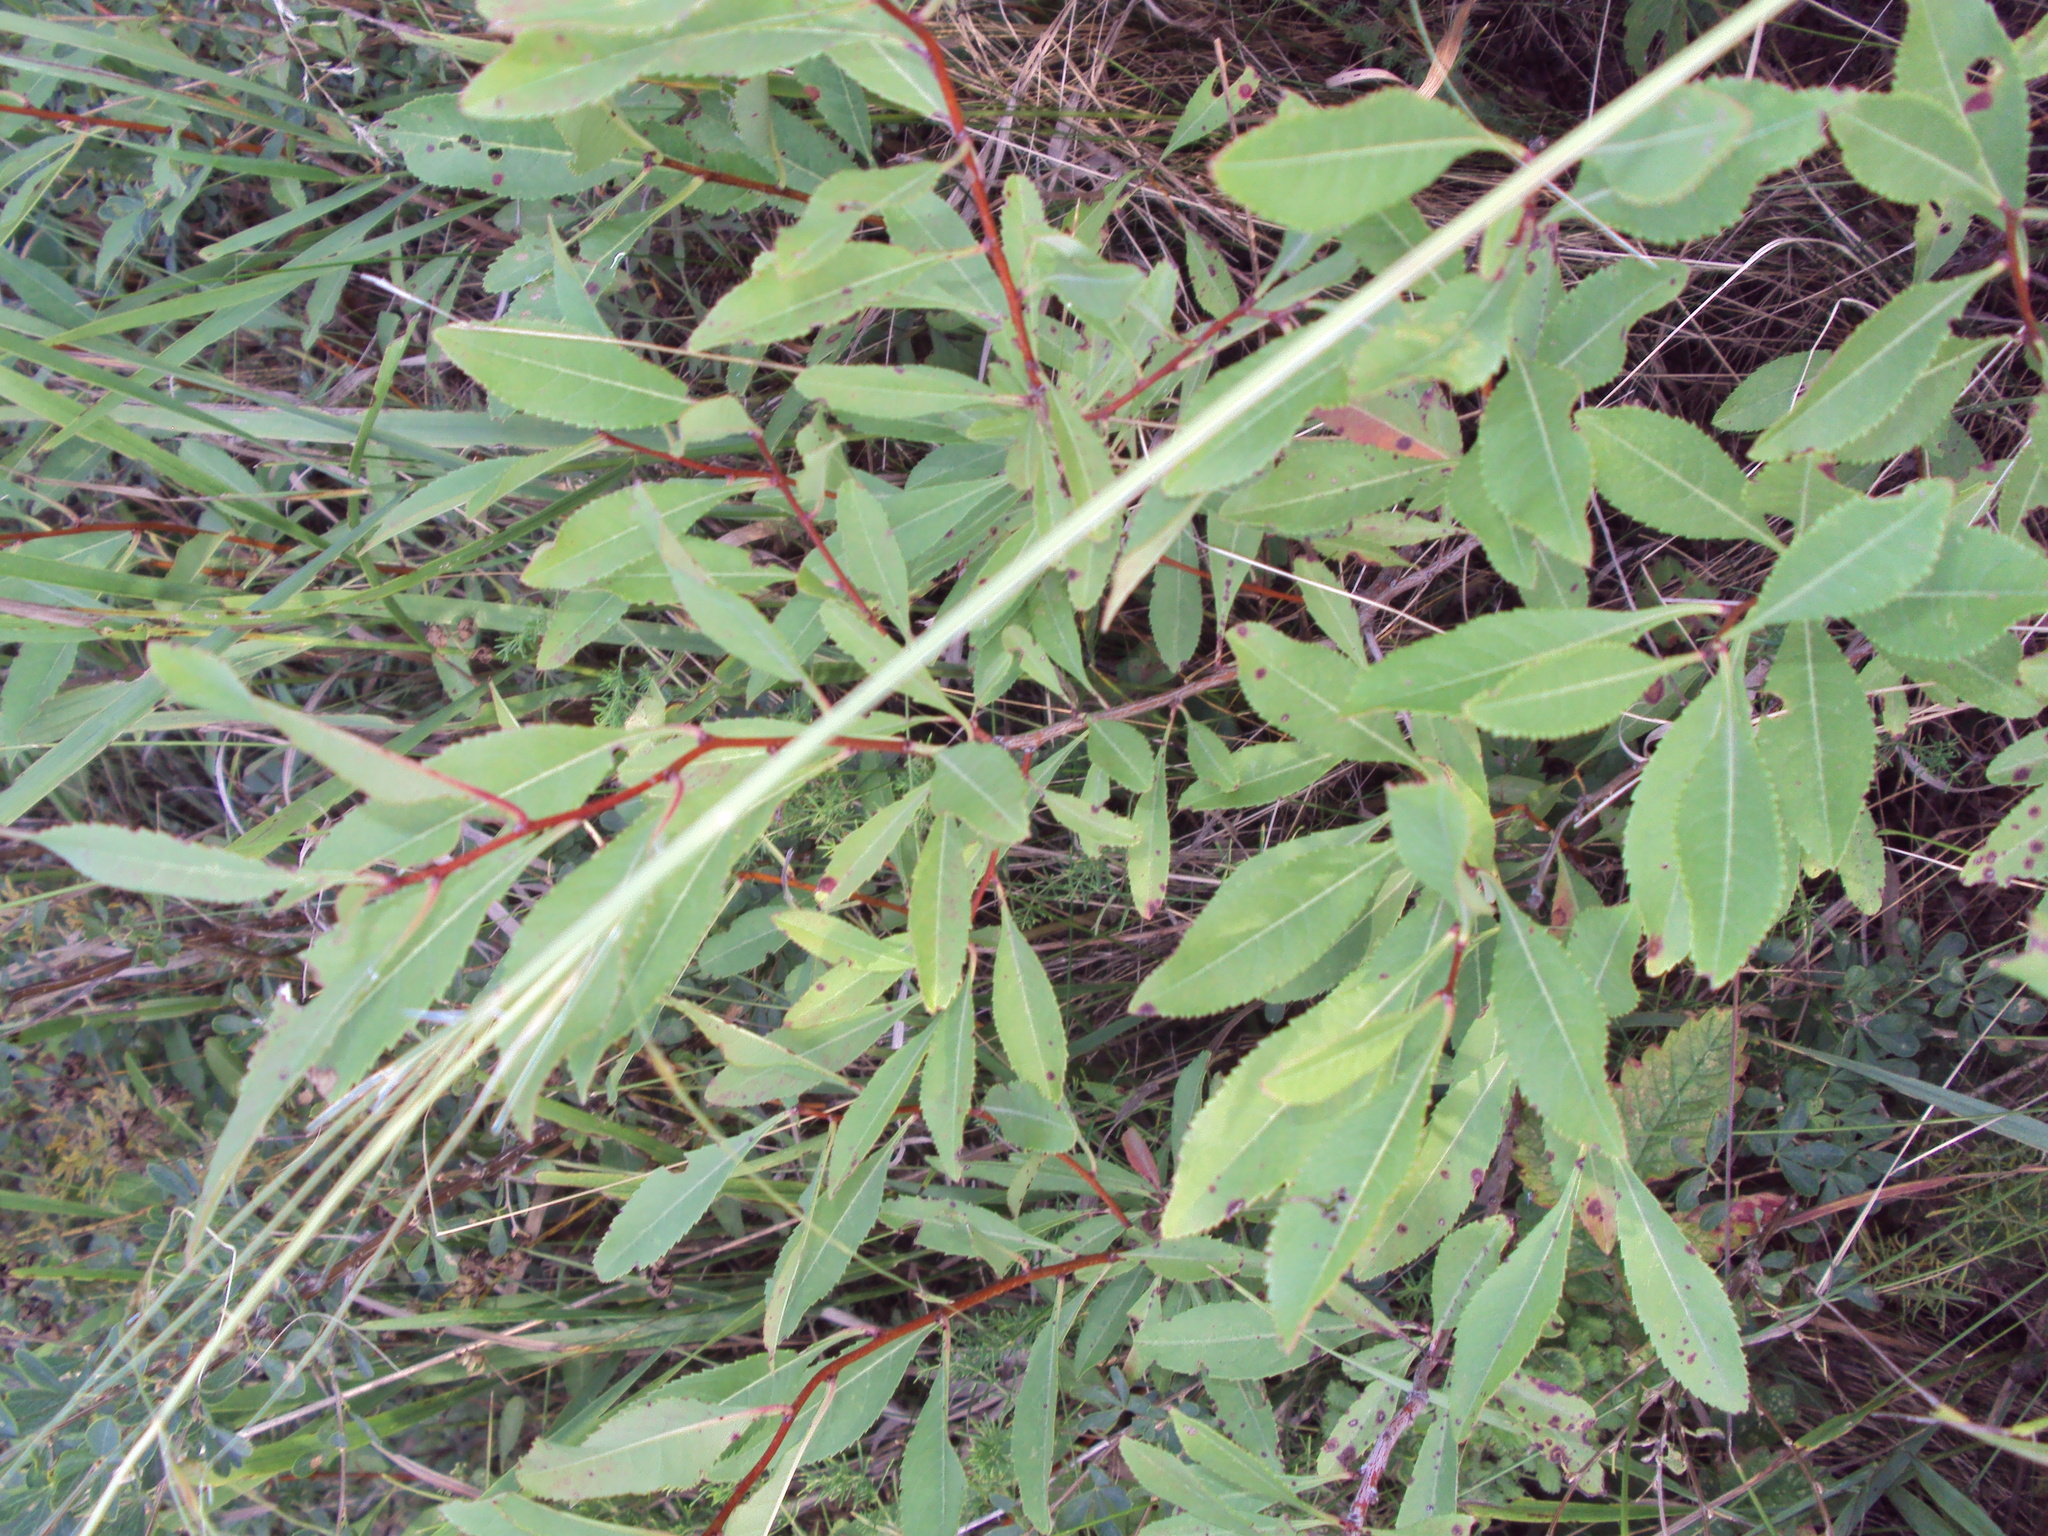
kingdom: Plantae
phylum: Tracheophyta
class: Magnoliopsida
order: Rosales
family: Rosaceae
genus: Prunus
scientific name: Prunus tenella
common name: Dwarf russian almond
